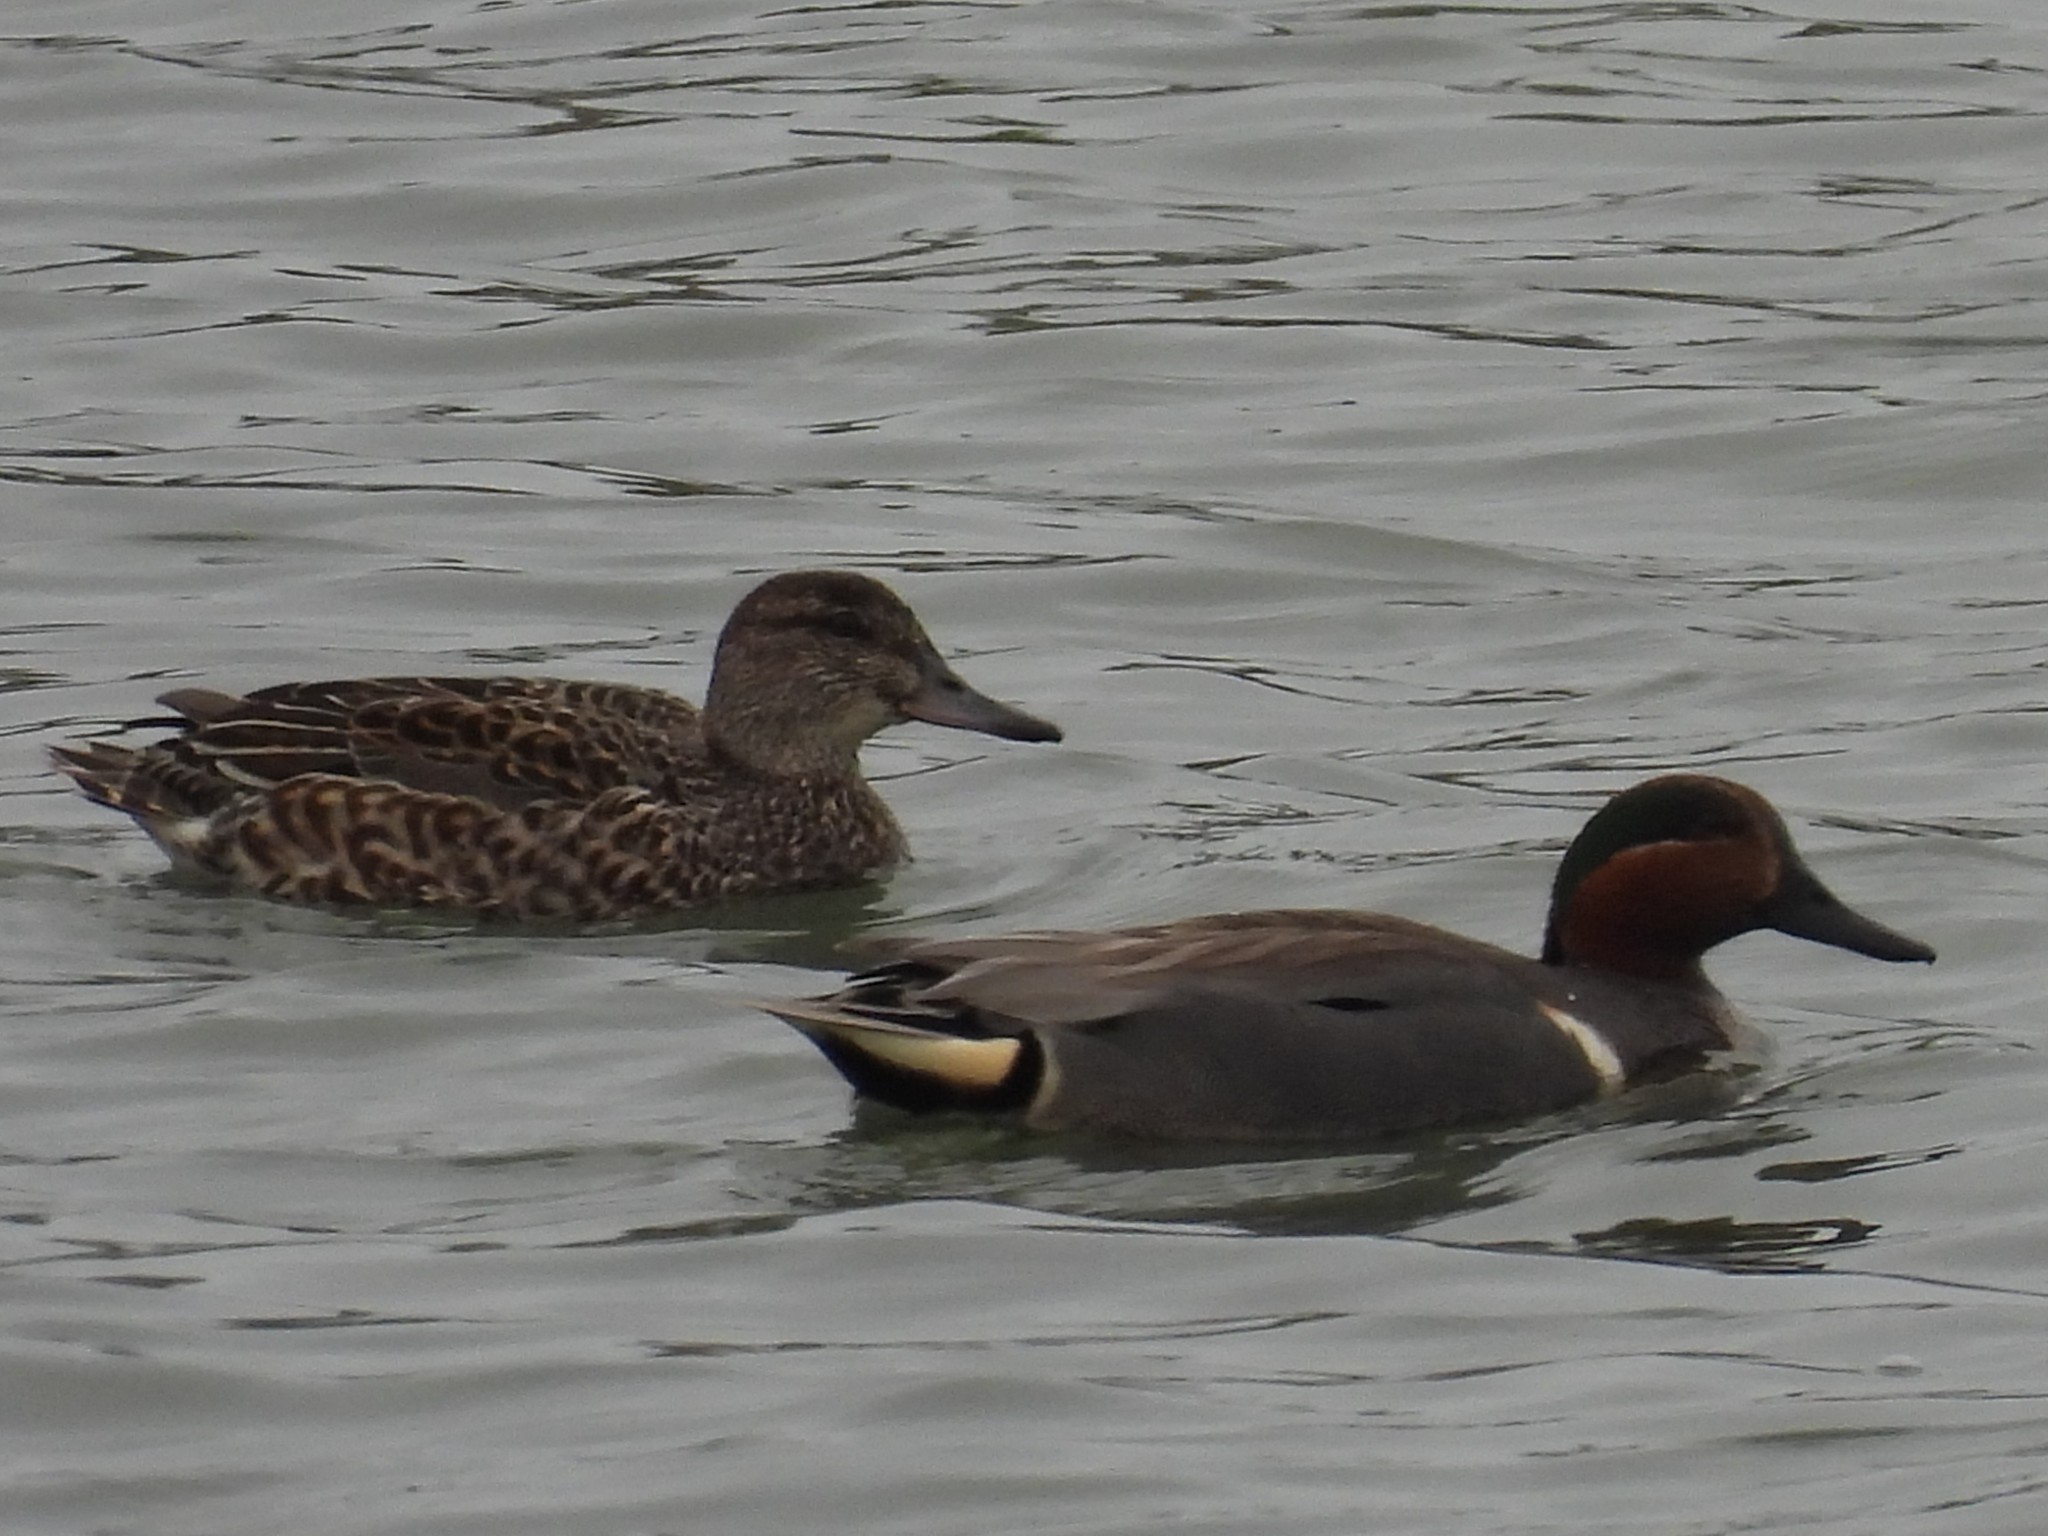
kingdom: Animalia
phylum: Chordata
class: Aves
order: Anseriformes
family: Anatidae
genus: Anas
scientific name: Anas crecca
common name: Eurasian teal
